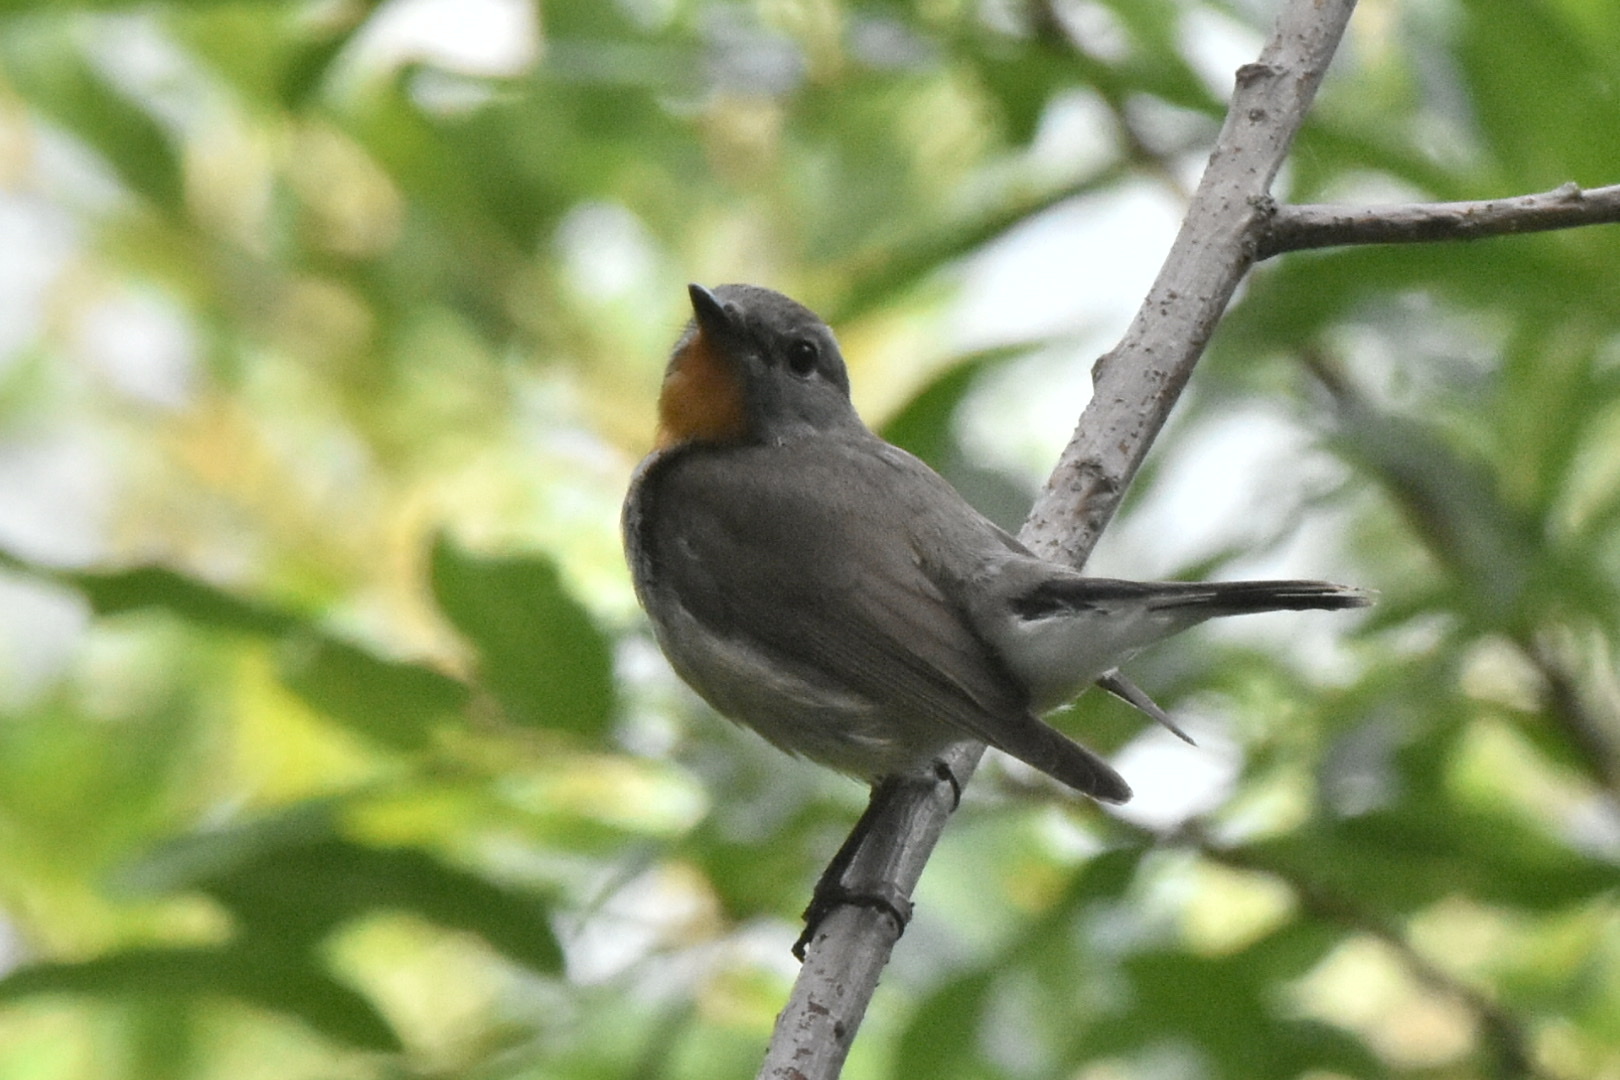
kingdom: Animalia
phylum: Chordata
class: Aves
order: Passeriformes
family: Muscicapidae
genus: Ficedula
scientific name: Ficedula albicilla
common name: Taiga flycatcher
